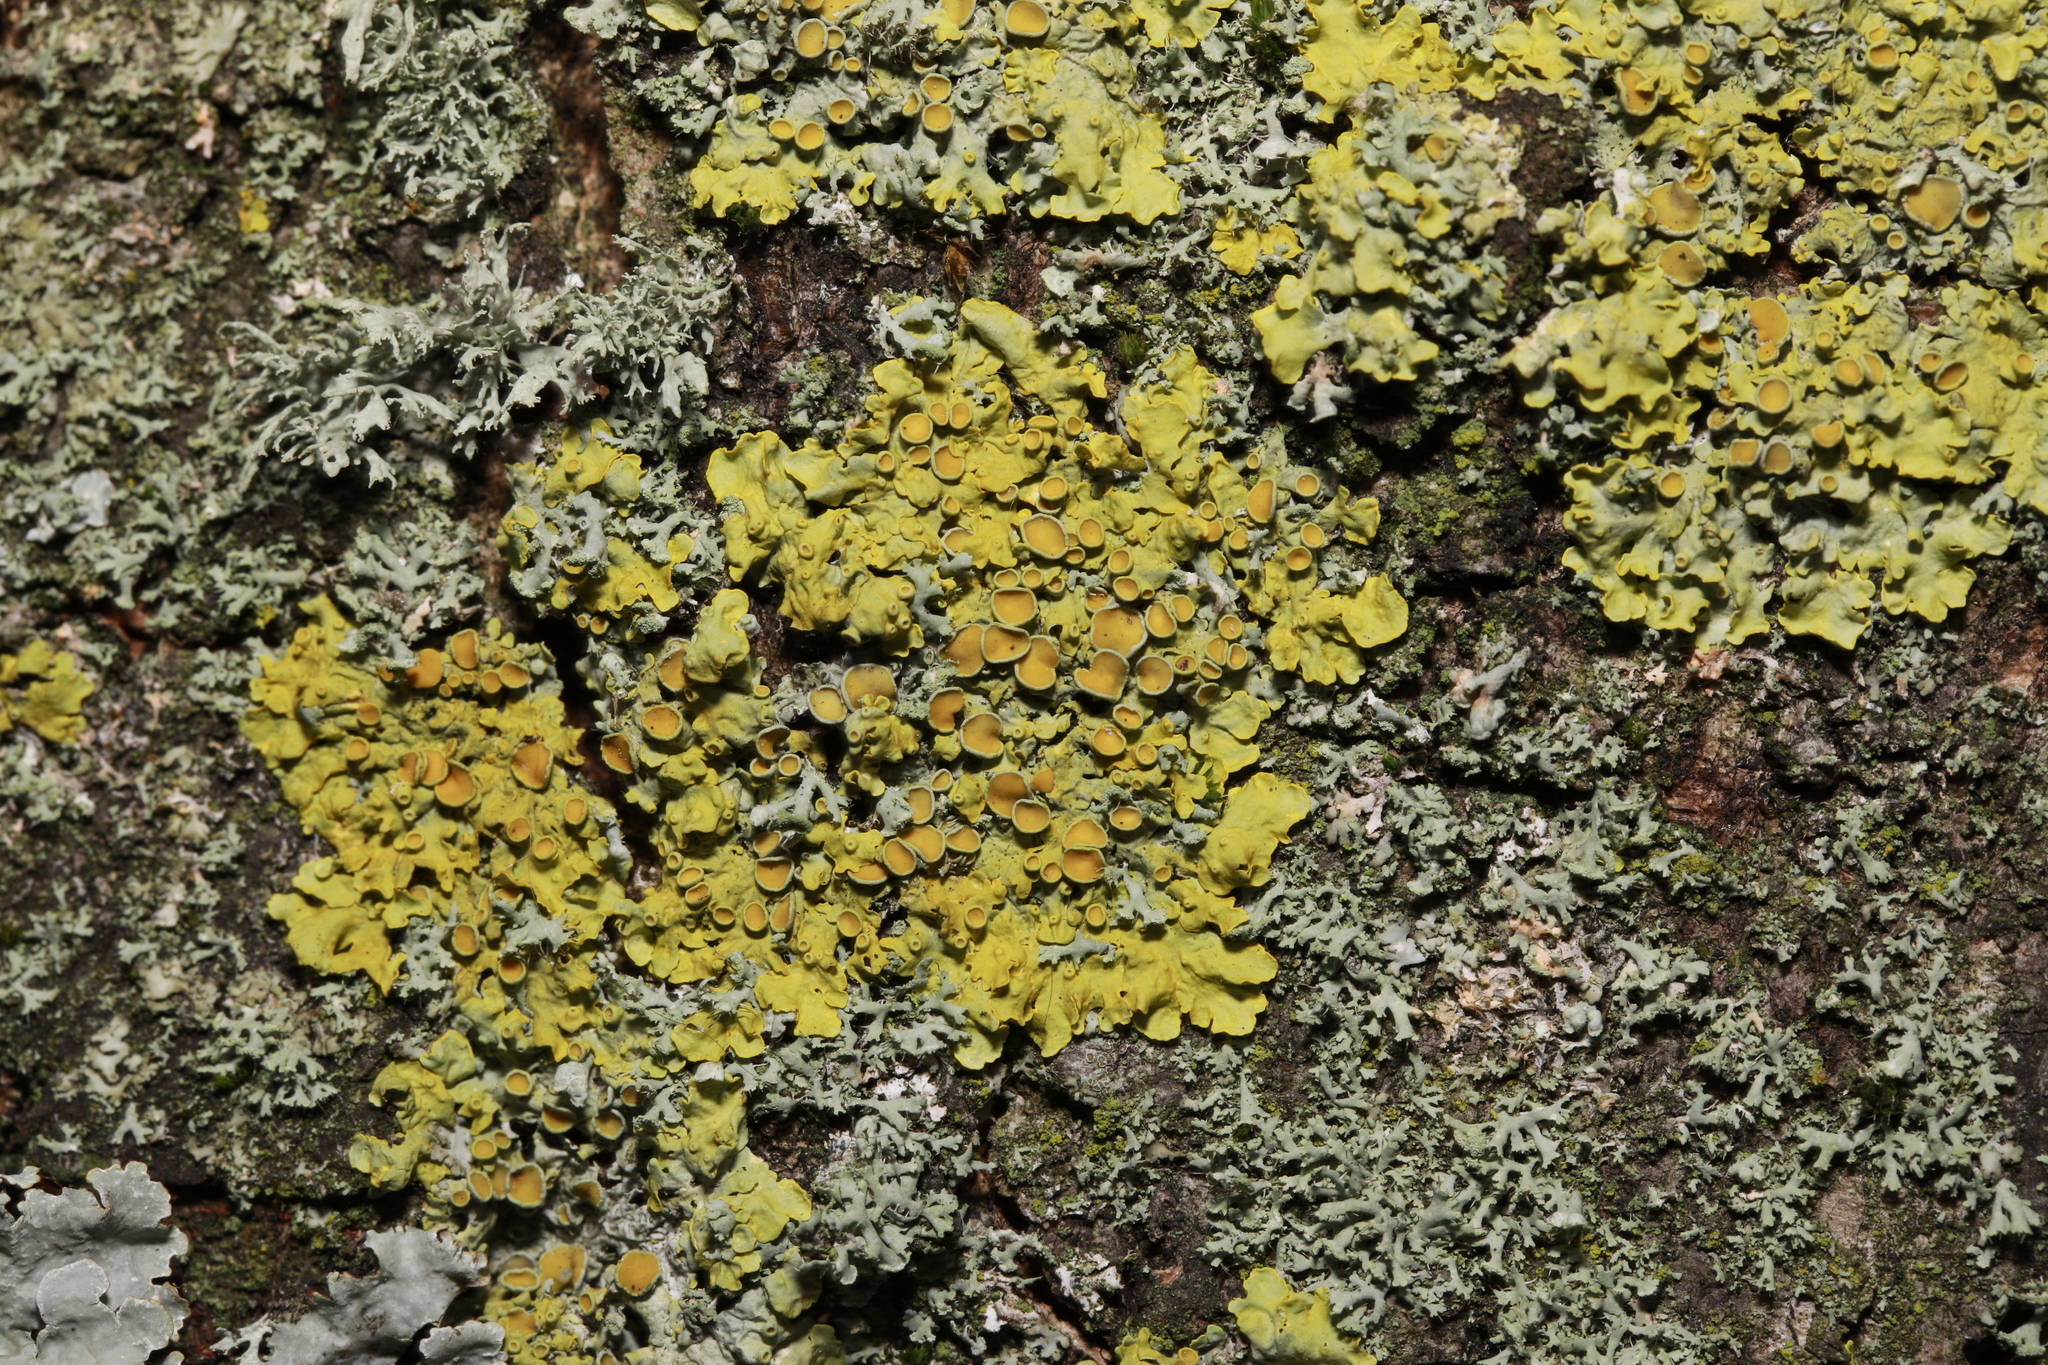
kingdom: Fungi
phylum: Ascomycota
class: Lecanoromycetes
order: Teloschistales
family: Teloschistaceae
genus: Xanthoria
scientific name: Xanthoria parietina
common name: Common orange lichen
